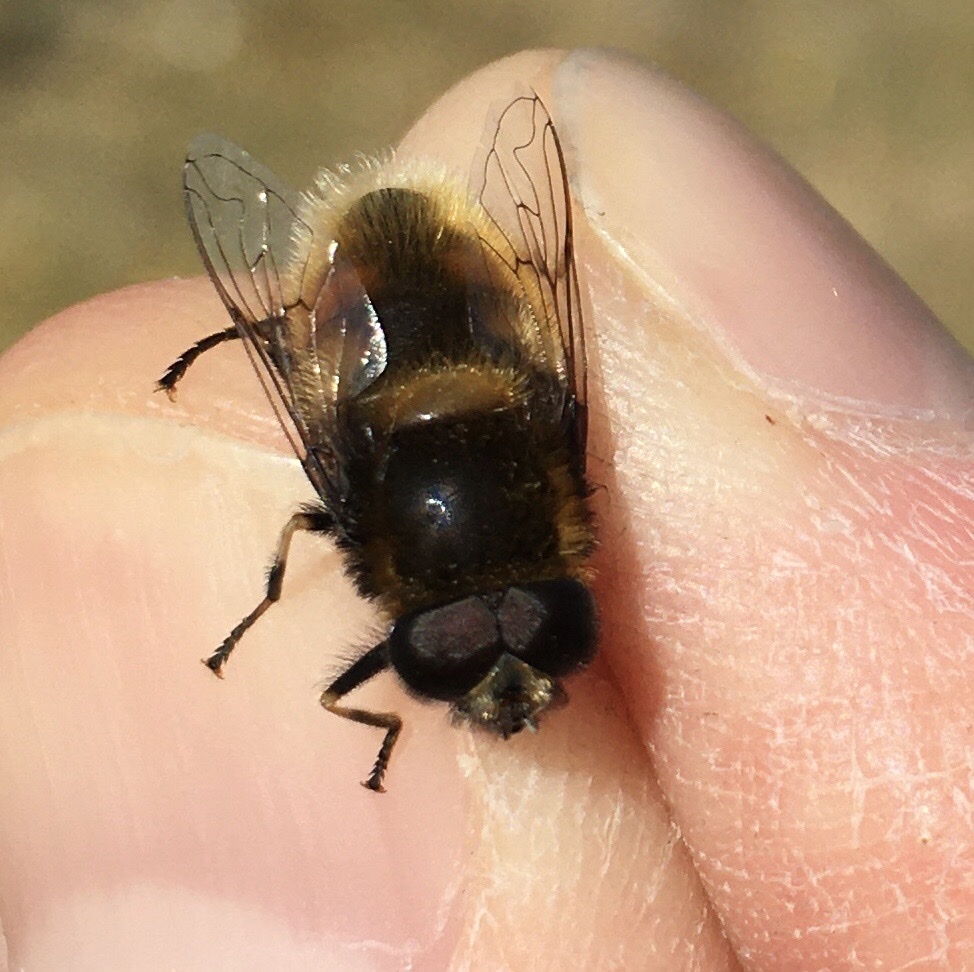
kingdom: Animalia
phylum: Arthropoda
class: Insecta
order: Diptera
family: Syrphidae
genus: Eristalis
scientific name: Eristalis intricaria
